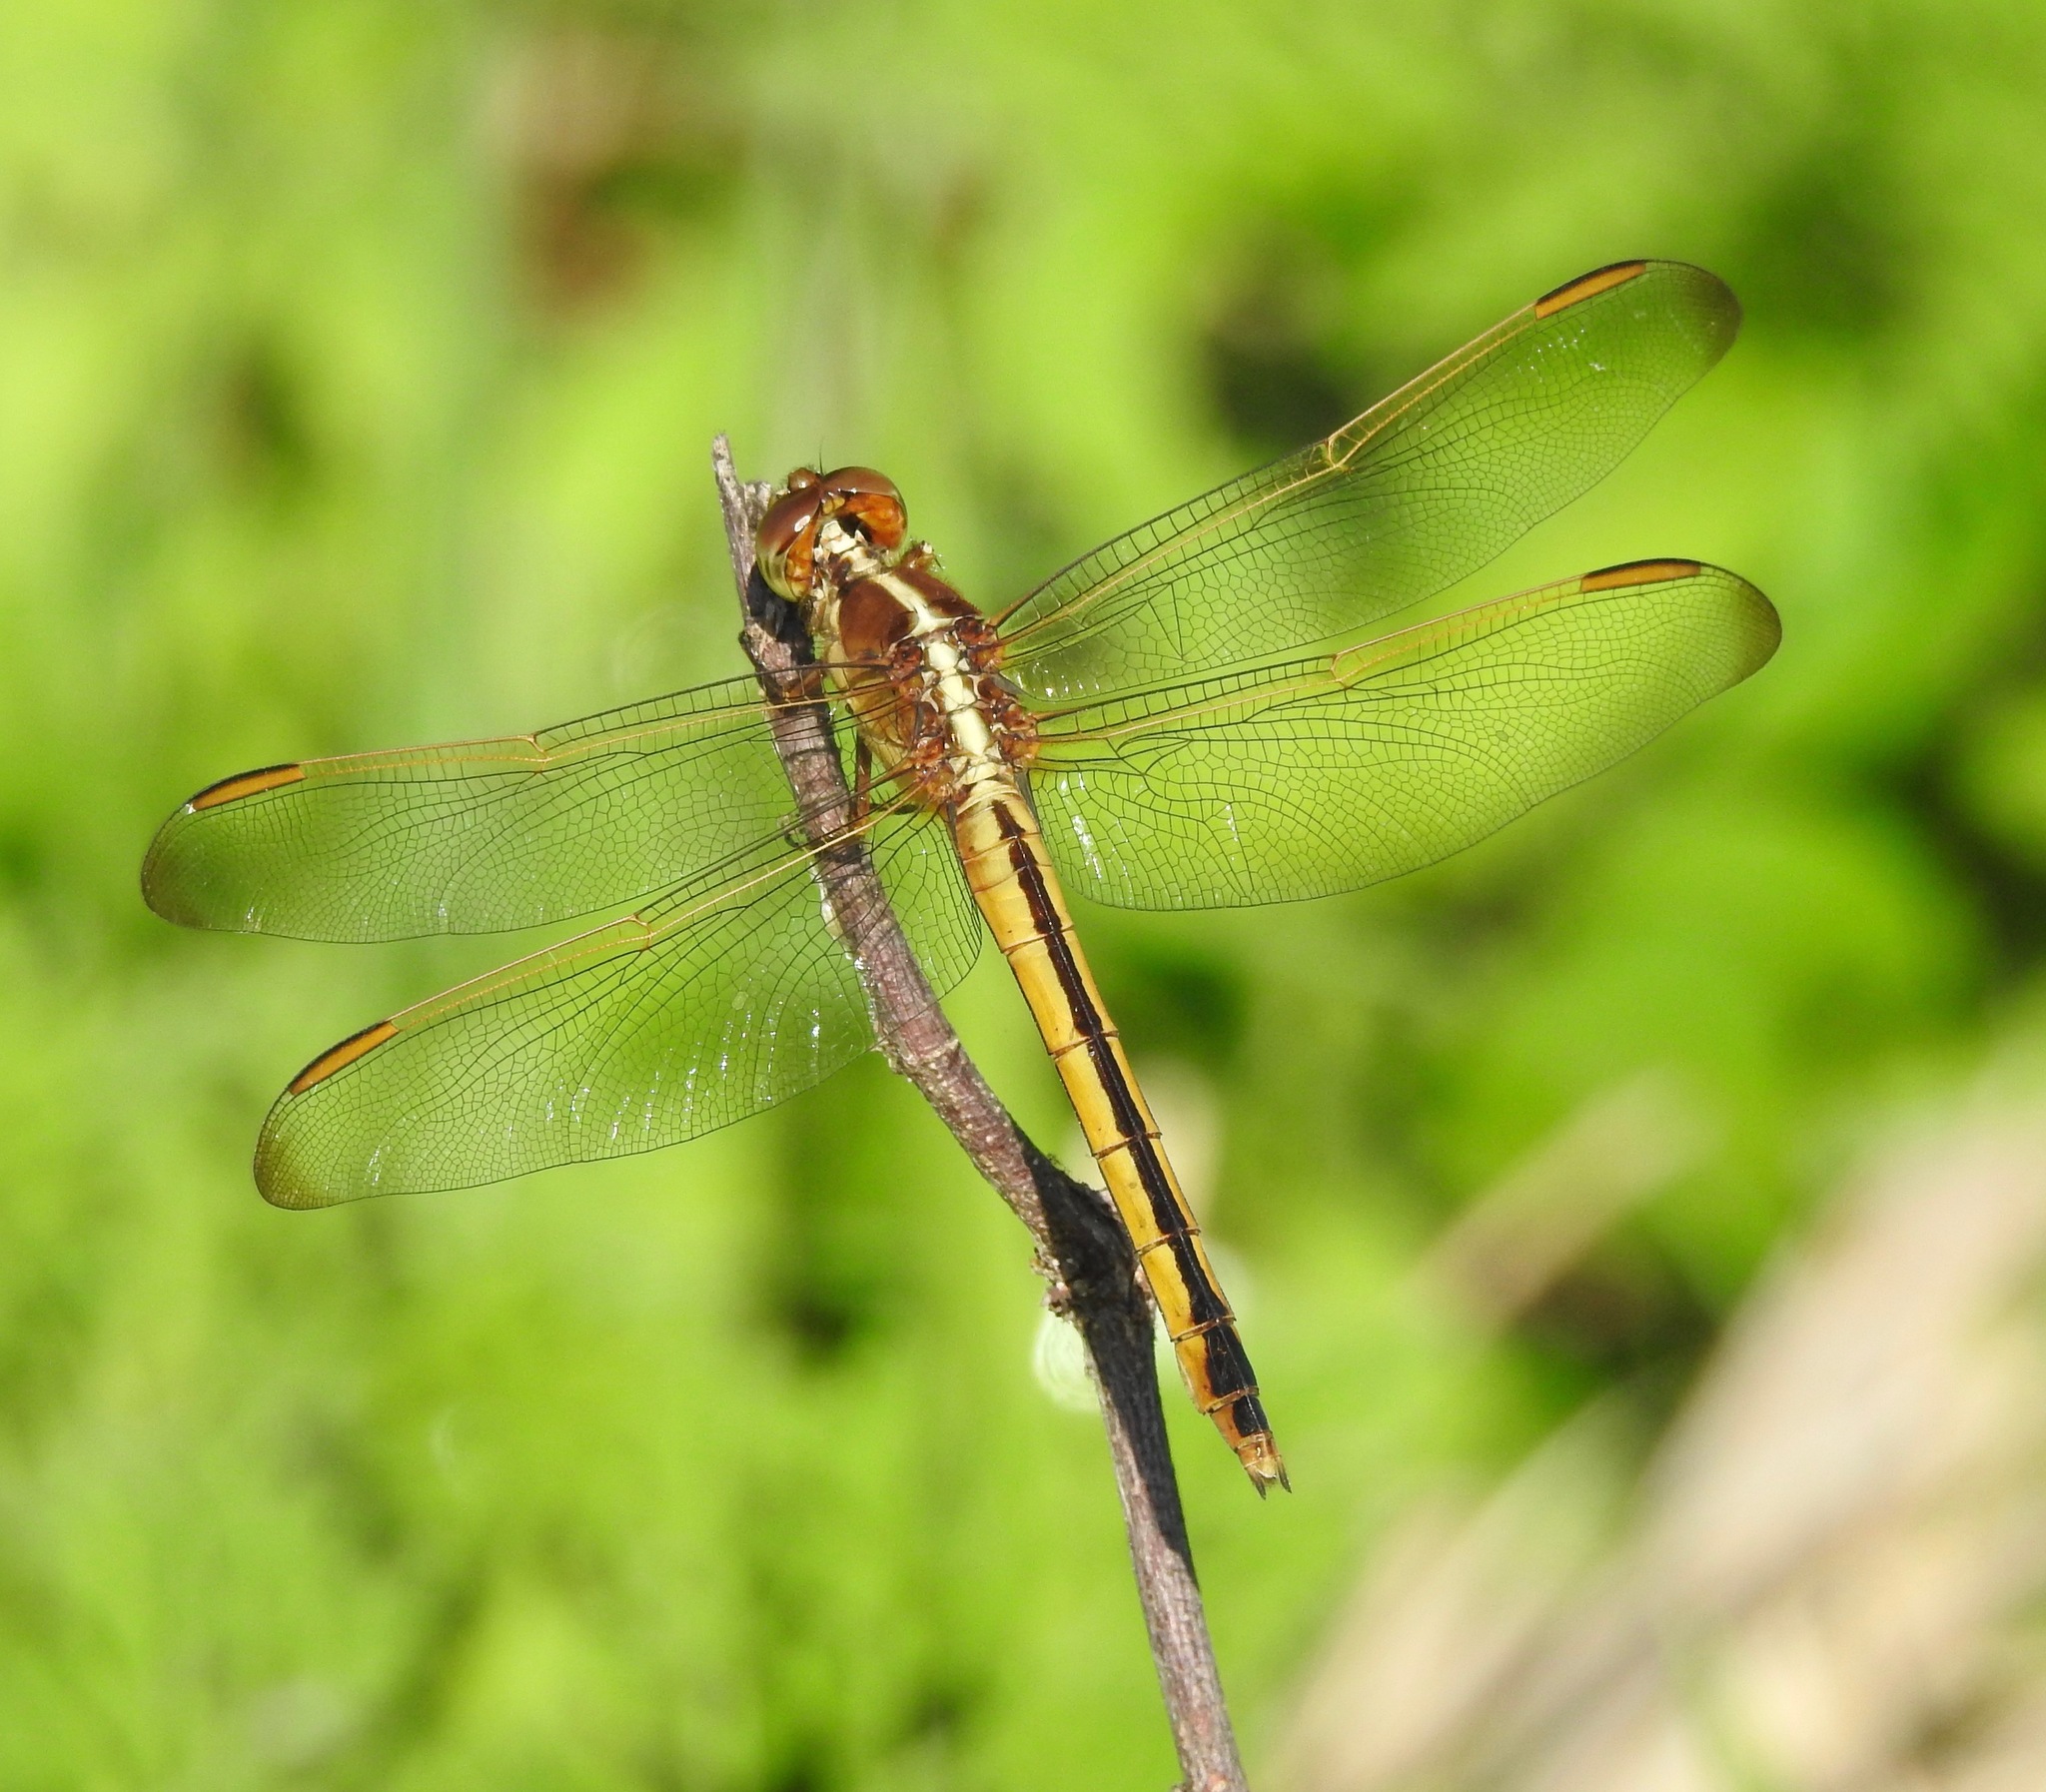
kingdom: Animalia
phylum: Arthropoda
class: Insecta
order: Odonata
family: Libellulidae
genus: Libellula
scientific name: Libellula needhami
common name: Needham's skimmer
